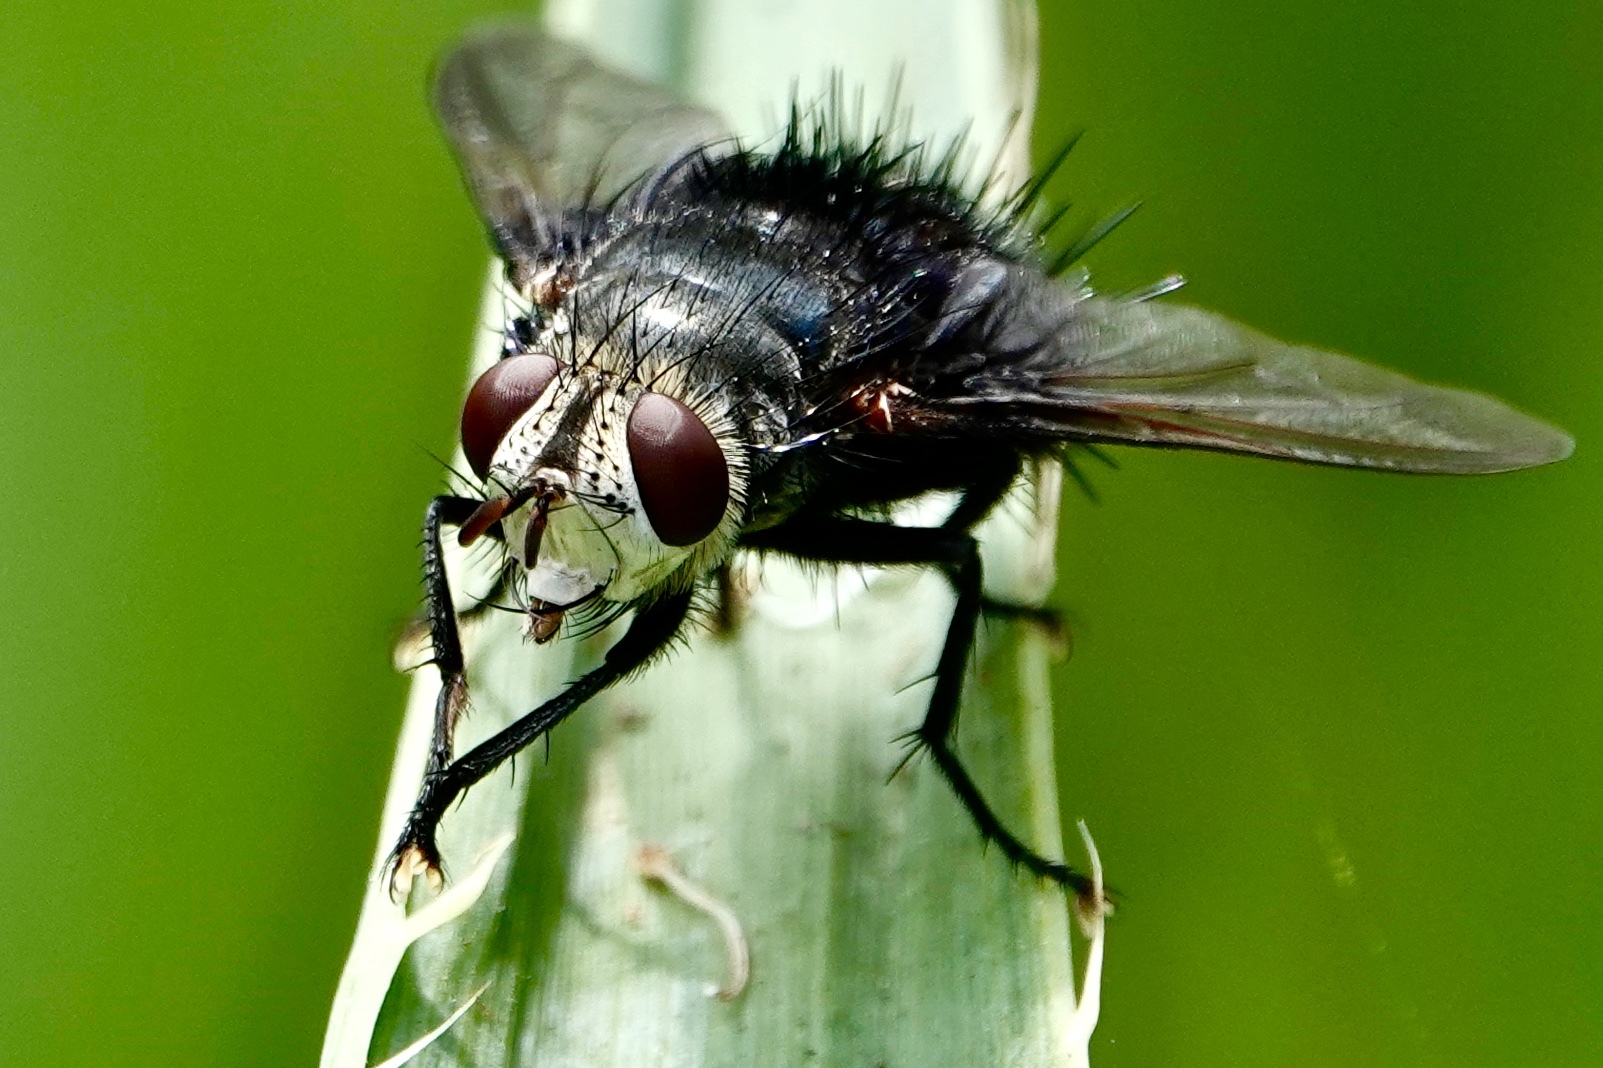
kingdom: Animalia
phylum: Arthropoda
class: Insecta
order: Diptera
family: Tachinidae
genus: Juriniopsis
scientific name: Juriniopsis adusta
